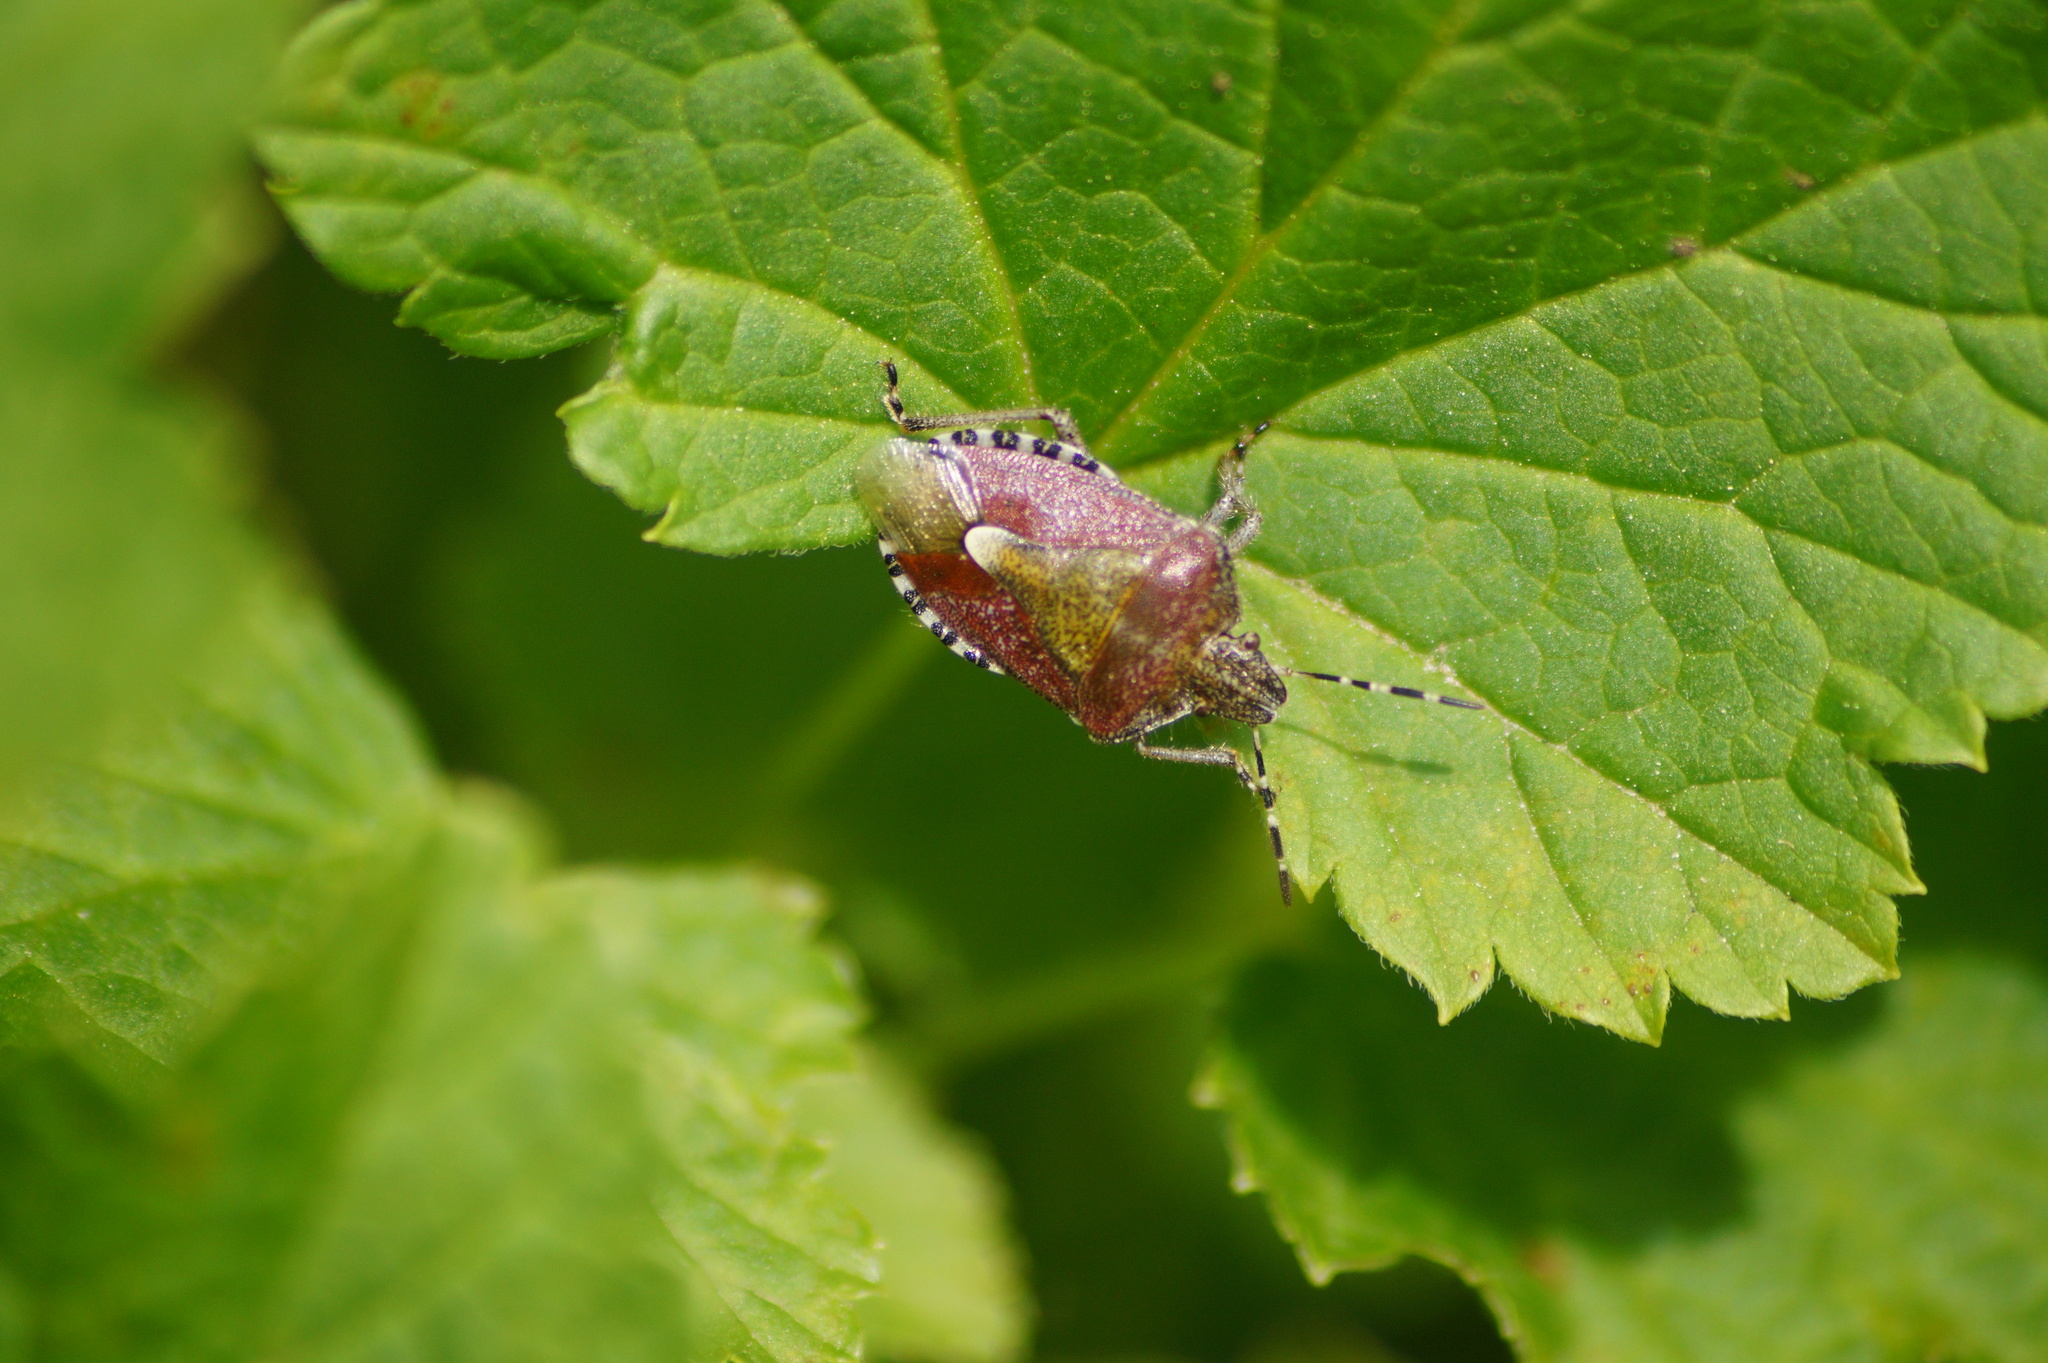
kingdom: Animalia
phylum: Arthropoda
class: Insecta
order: Hemiptera
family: Pentatomidae
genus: Dolycoris
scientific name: Dolycoris baccarum
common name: Sloe bug
